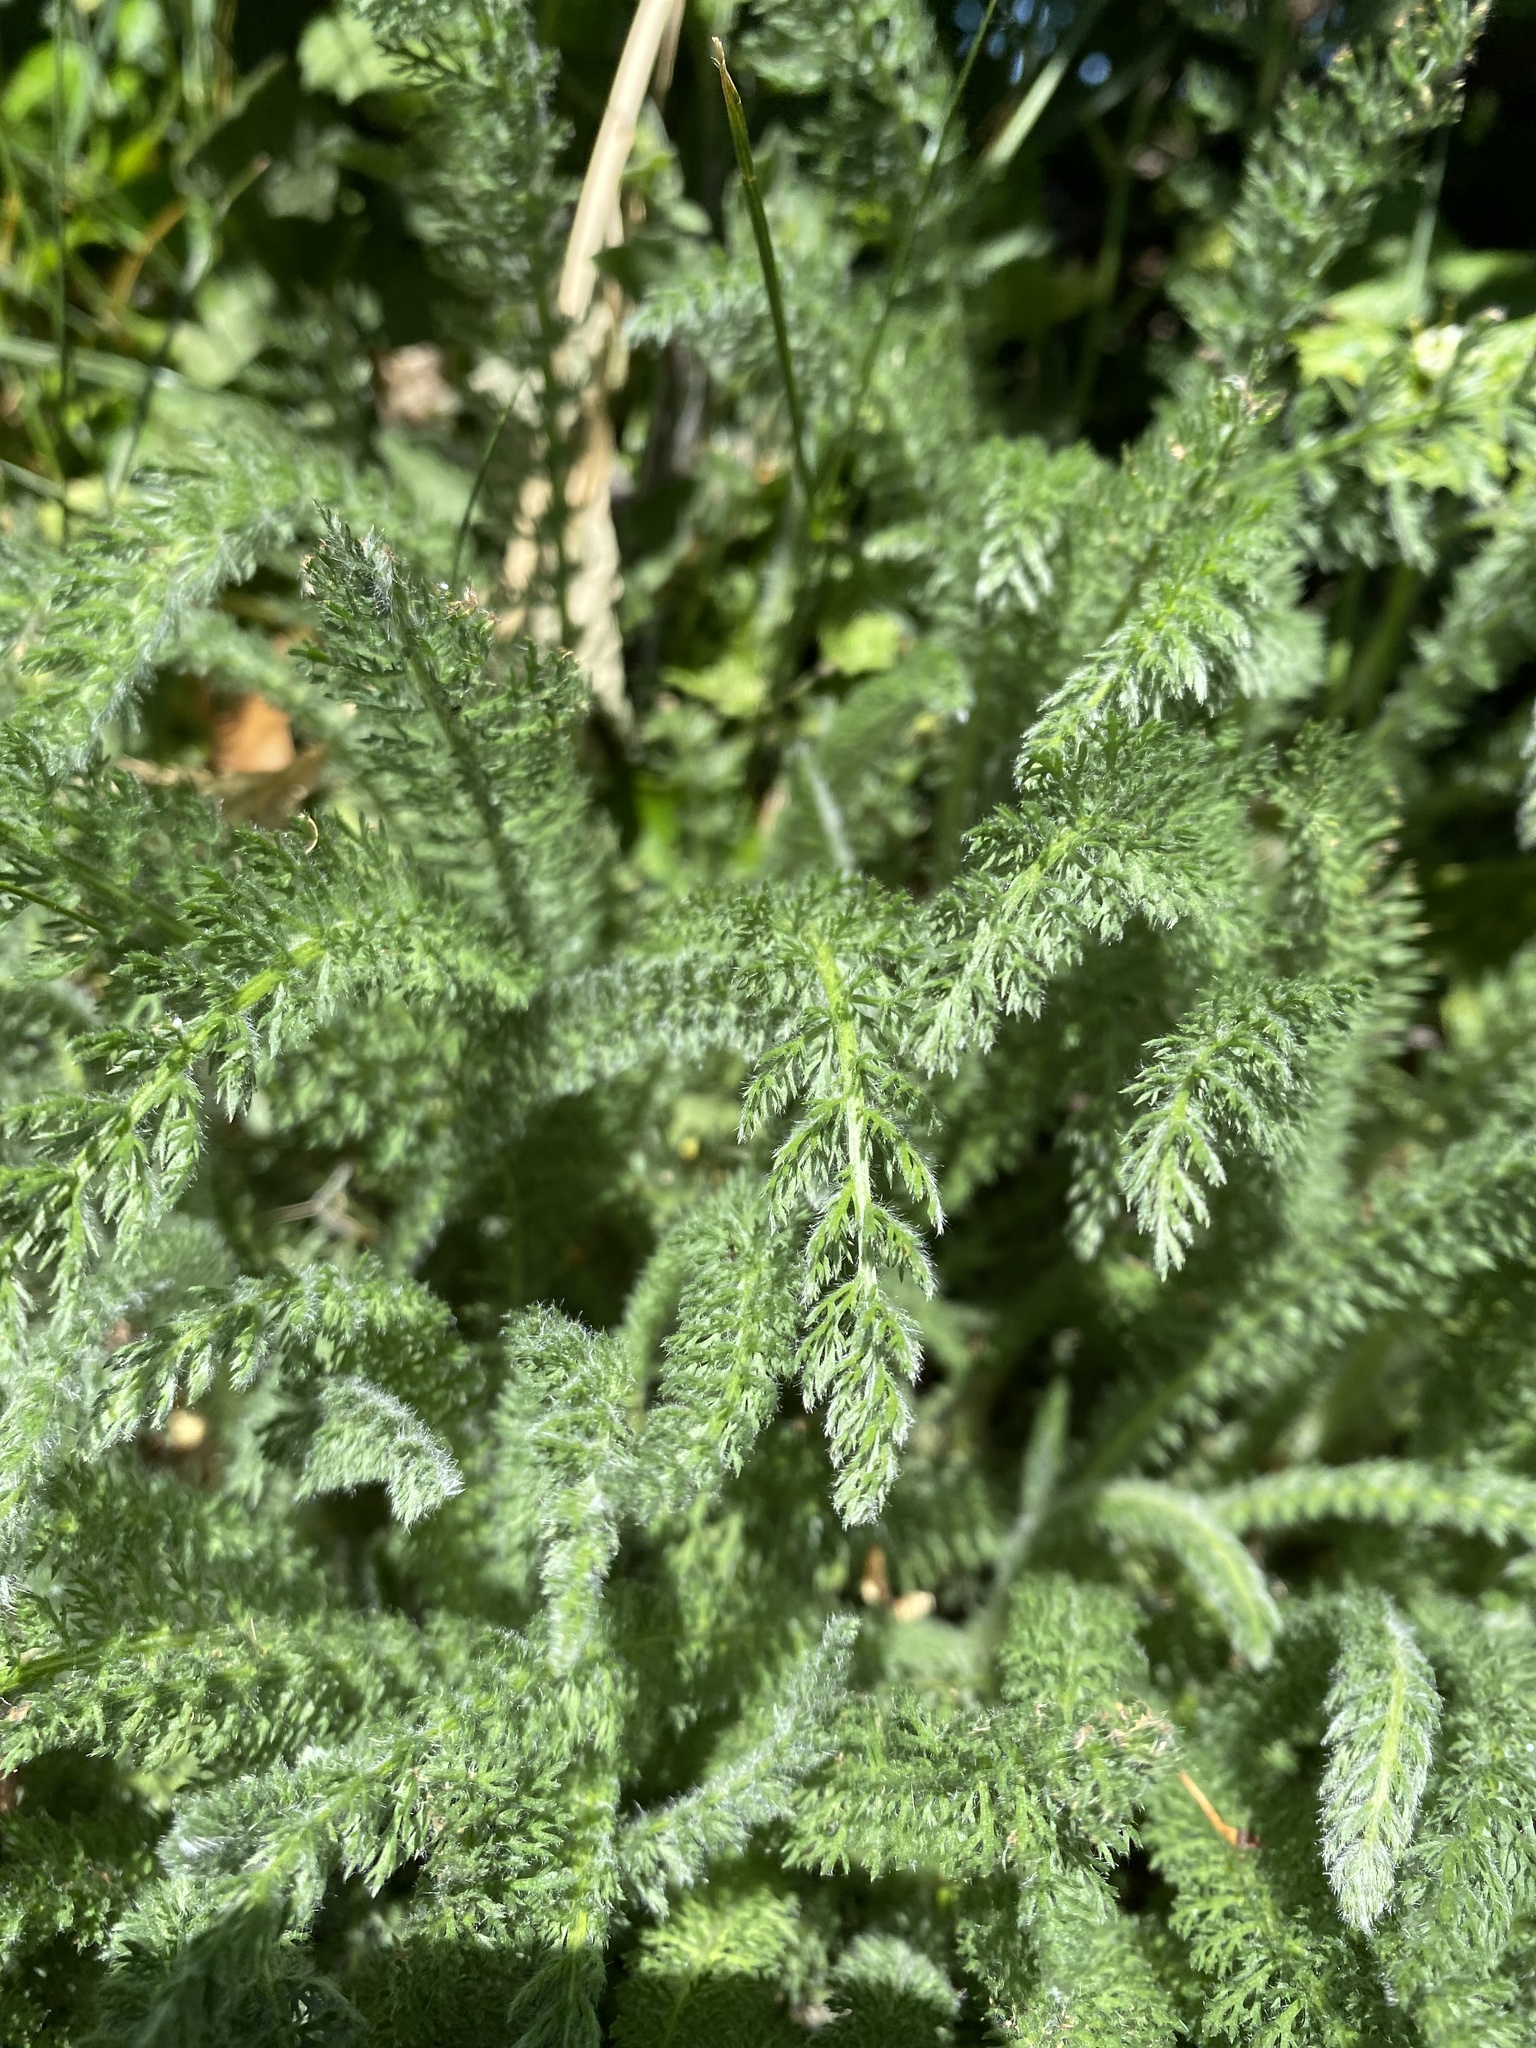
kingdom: Plantae
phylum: Tracheophyta
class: Magnoliopsida
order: Asterales
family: Asteraceae
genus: Achillea
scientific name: Achillea millefolium
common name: Yarrow
